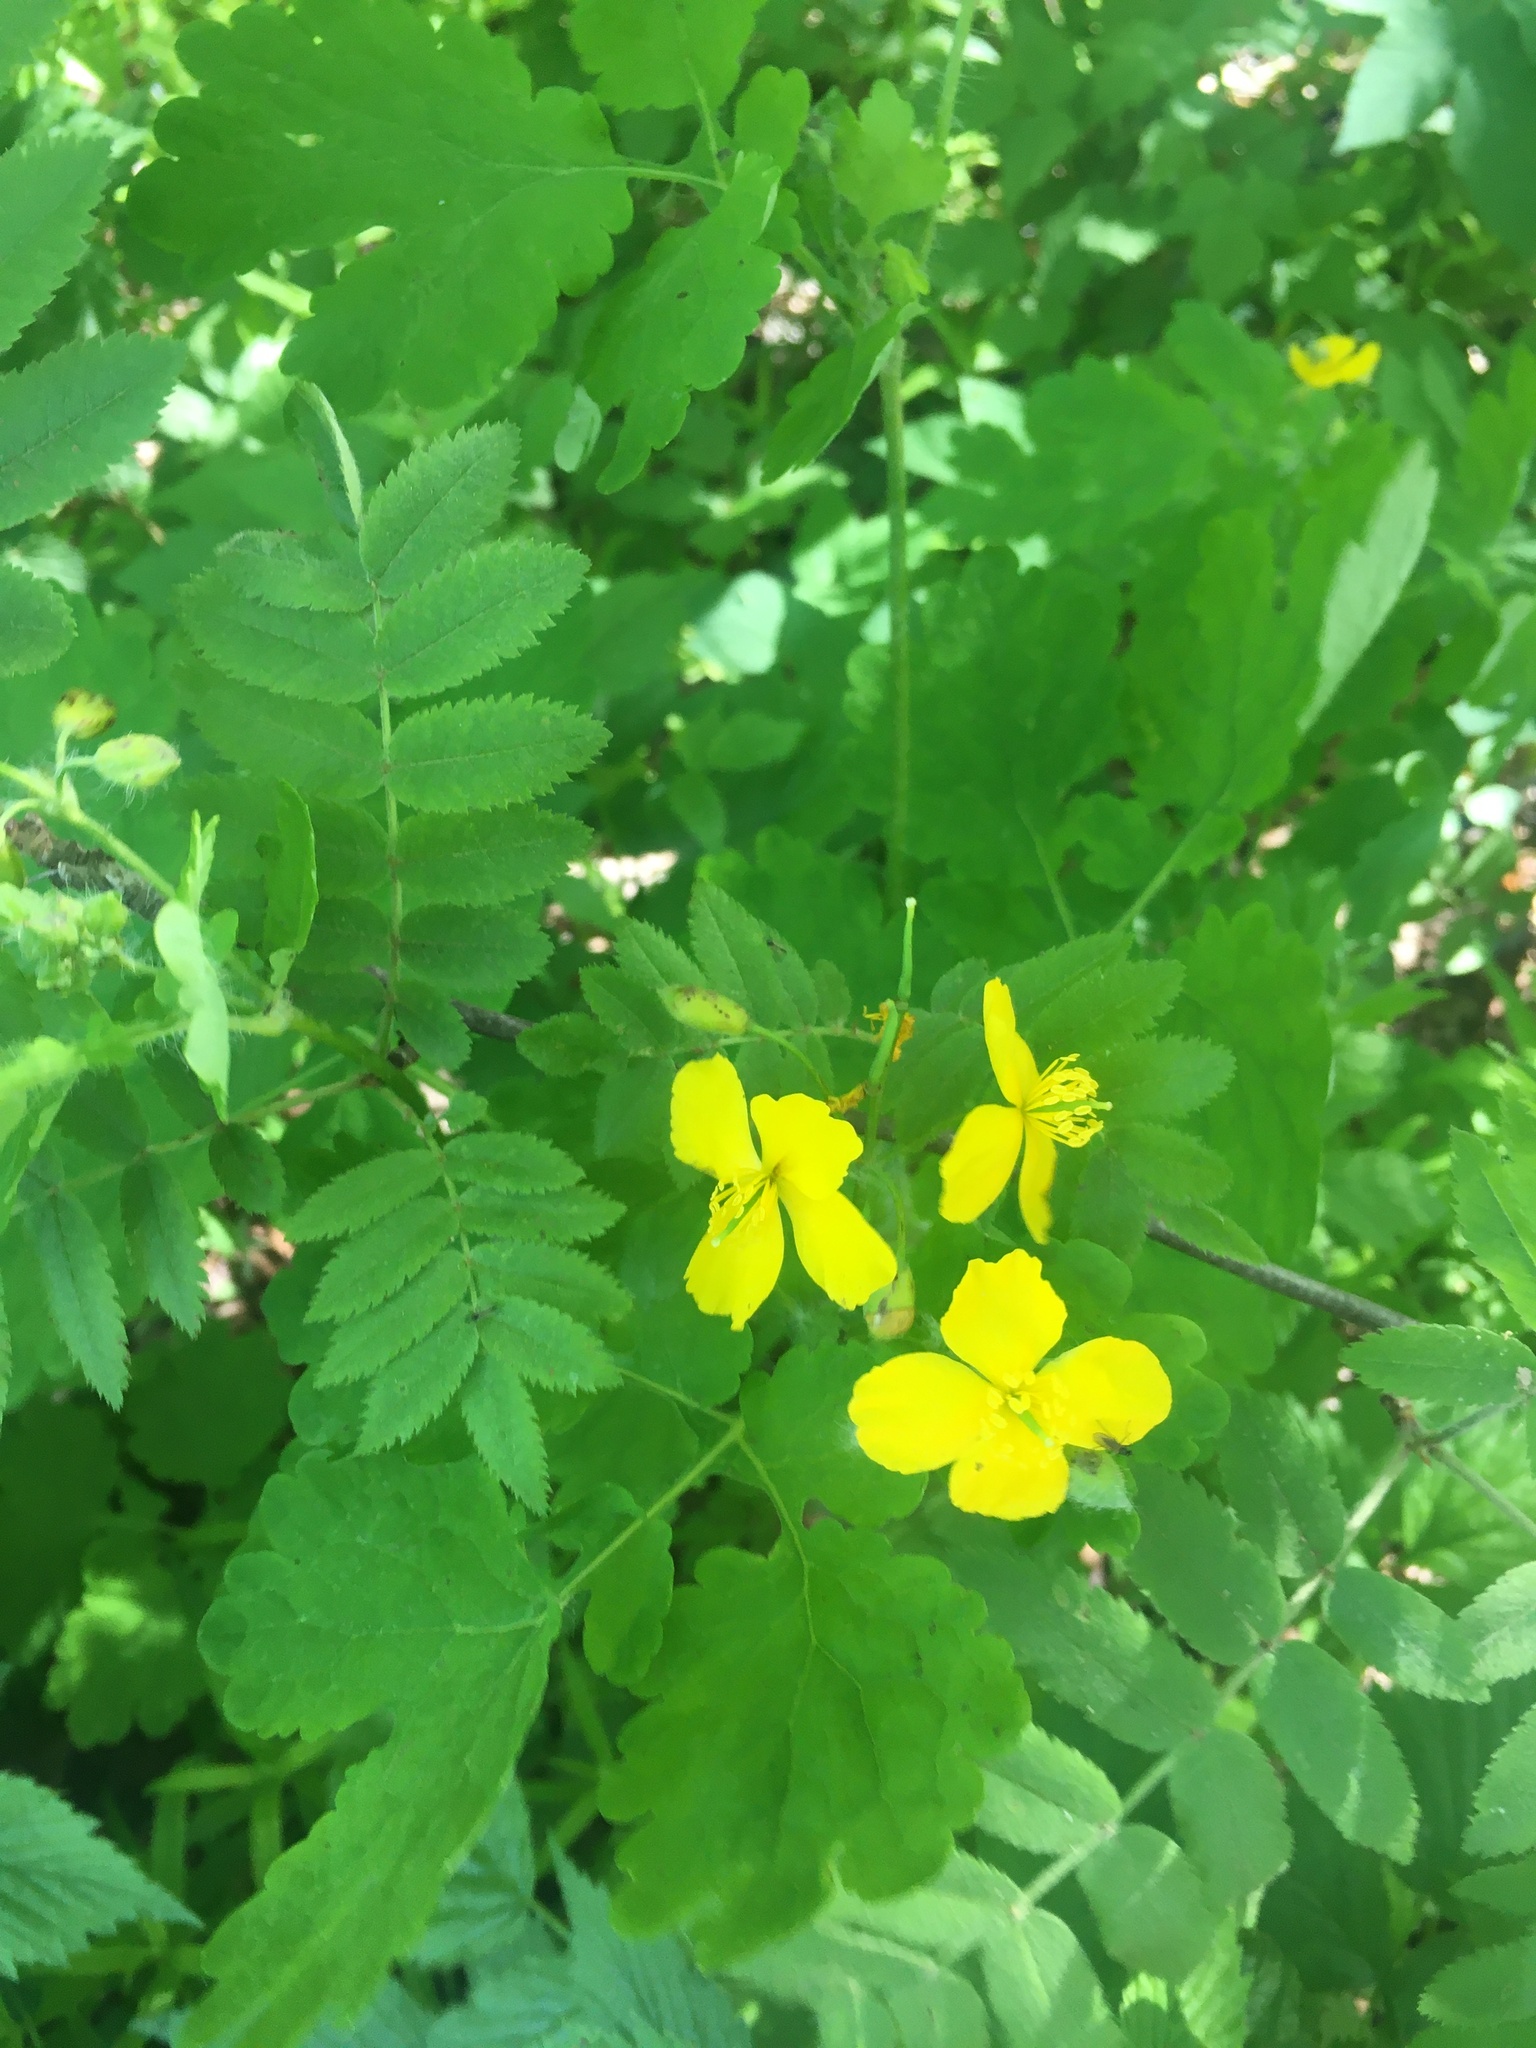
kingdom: Plantae
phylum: Tracheophyta
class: Magnoliopsida
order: Ranunculales
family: Papaveraceae
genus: Chelidonium
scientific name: Chelidonium majus
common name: Greater celandine
